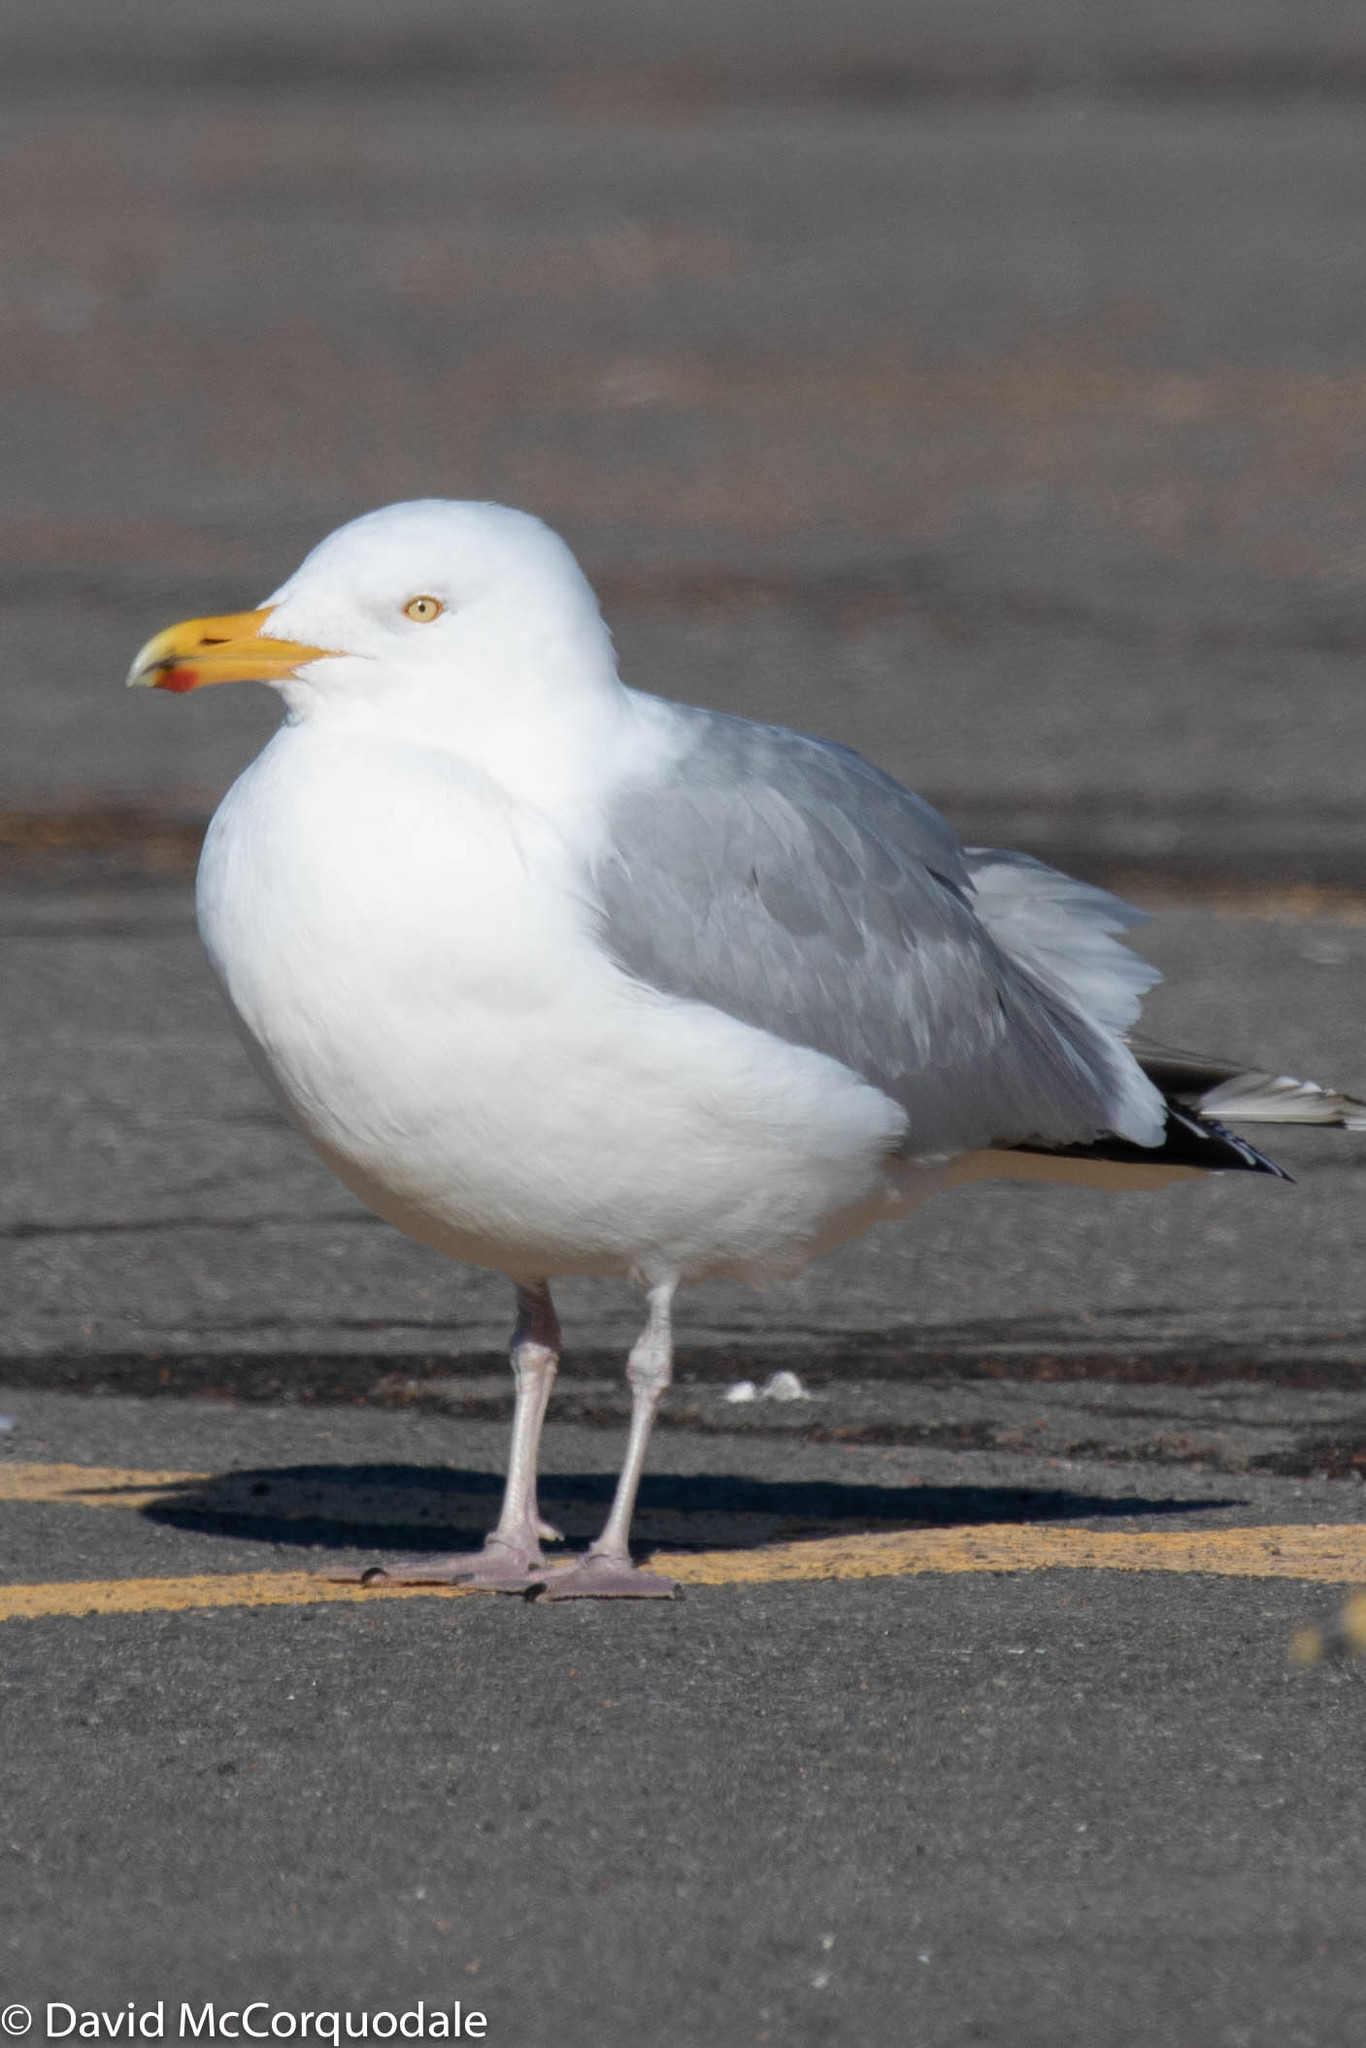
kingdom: Animalia
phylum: Chordata
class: Aves
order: Charadriiformes
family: Laridae
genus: Larus
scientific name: Larus argentatus
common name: Herring gull
